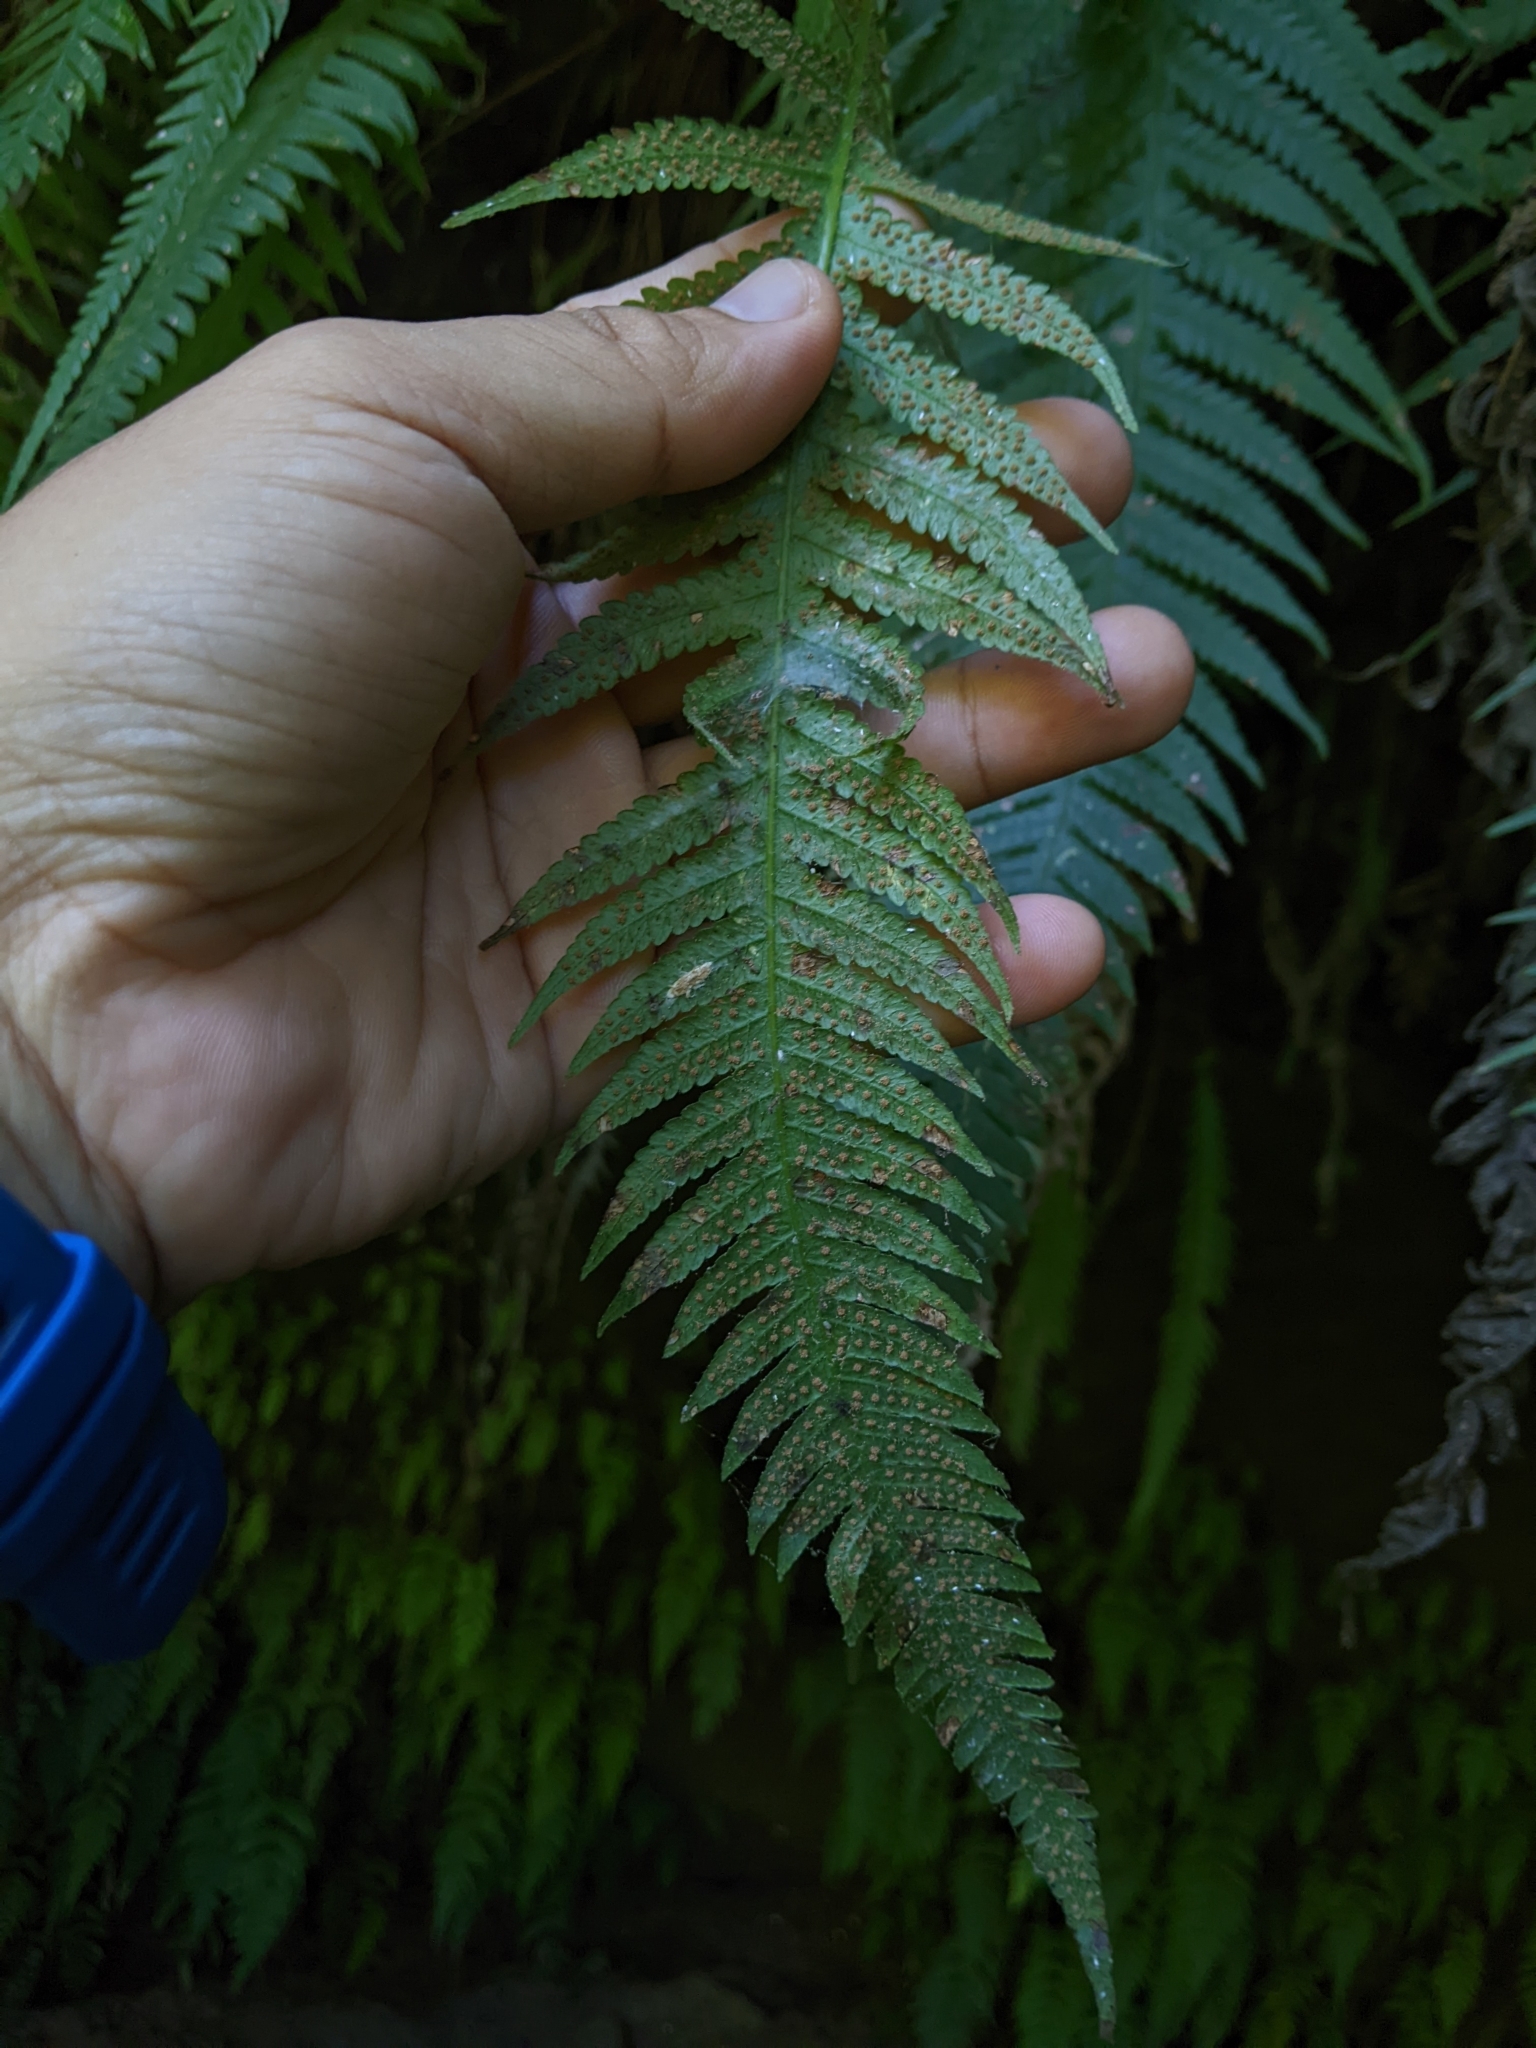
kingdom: Plantae
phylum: Tracheophyta
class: Polypodiopsida
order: Polypodiales
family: Thelypteridaceae
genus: Phegopteris
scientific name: Phegopteris decursive-pinnata
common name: Japanese beech fern
